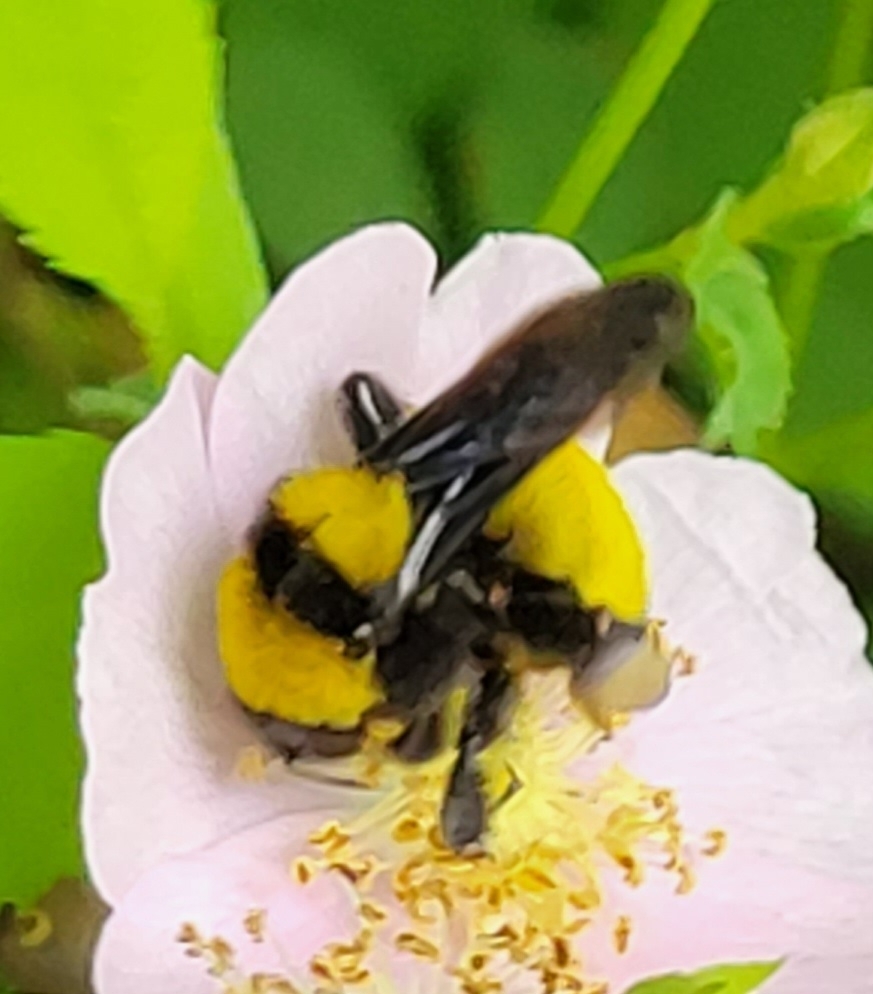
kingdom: Animalia
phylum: Arthropoda
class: Insecta
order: Hymenoptera
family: Apidae
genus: Bombus
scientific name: Bombus sonorus
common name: Sonoran bumble bee
